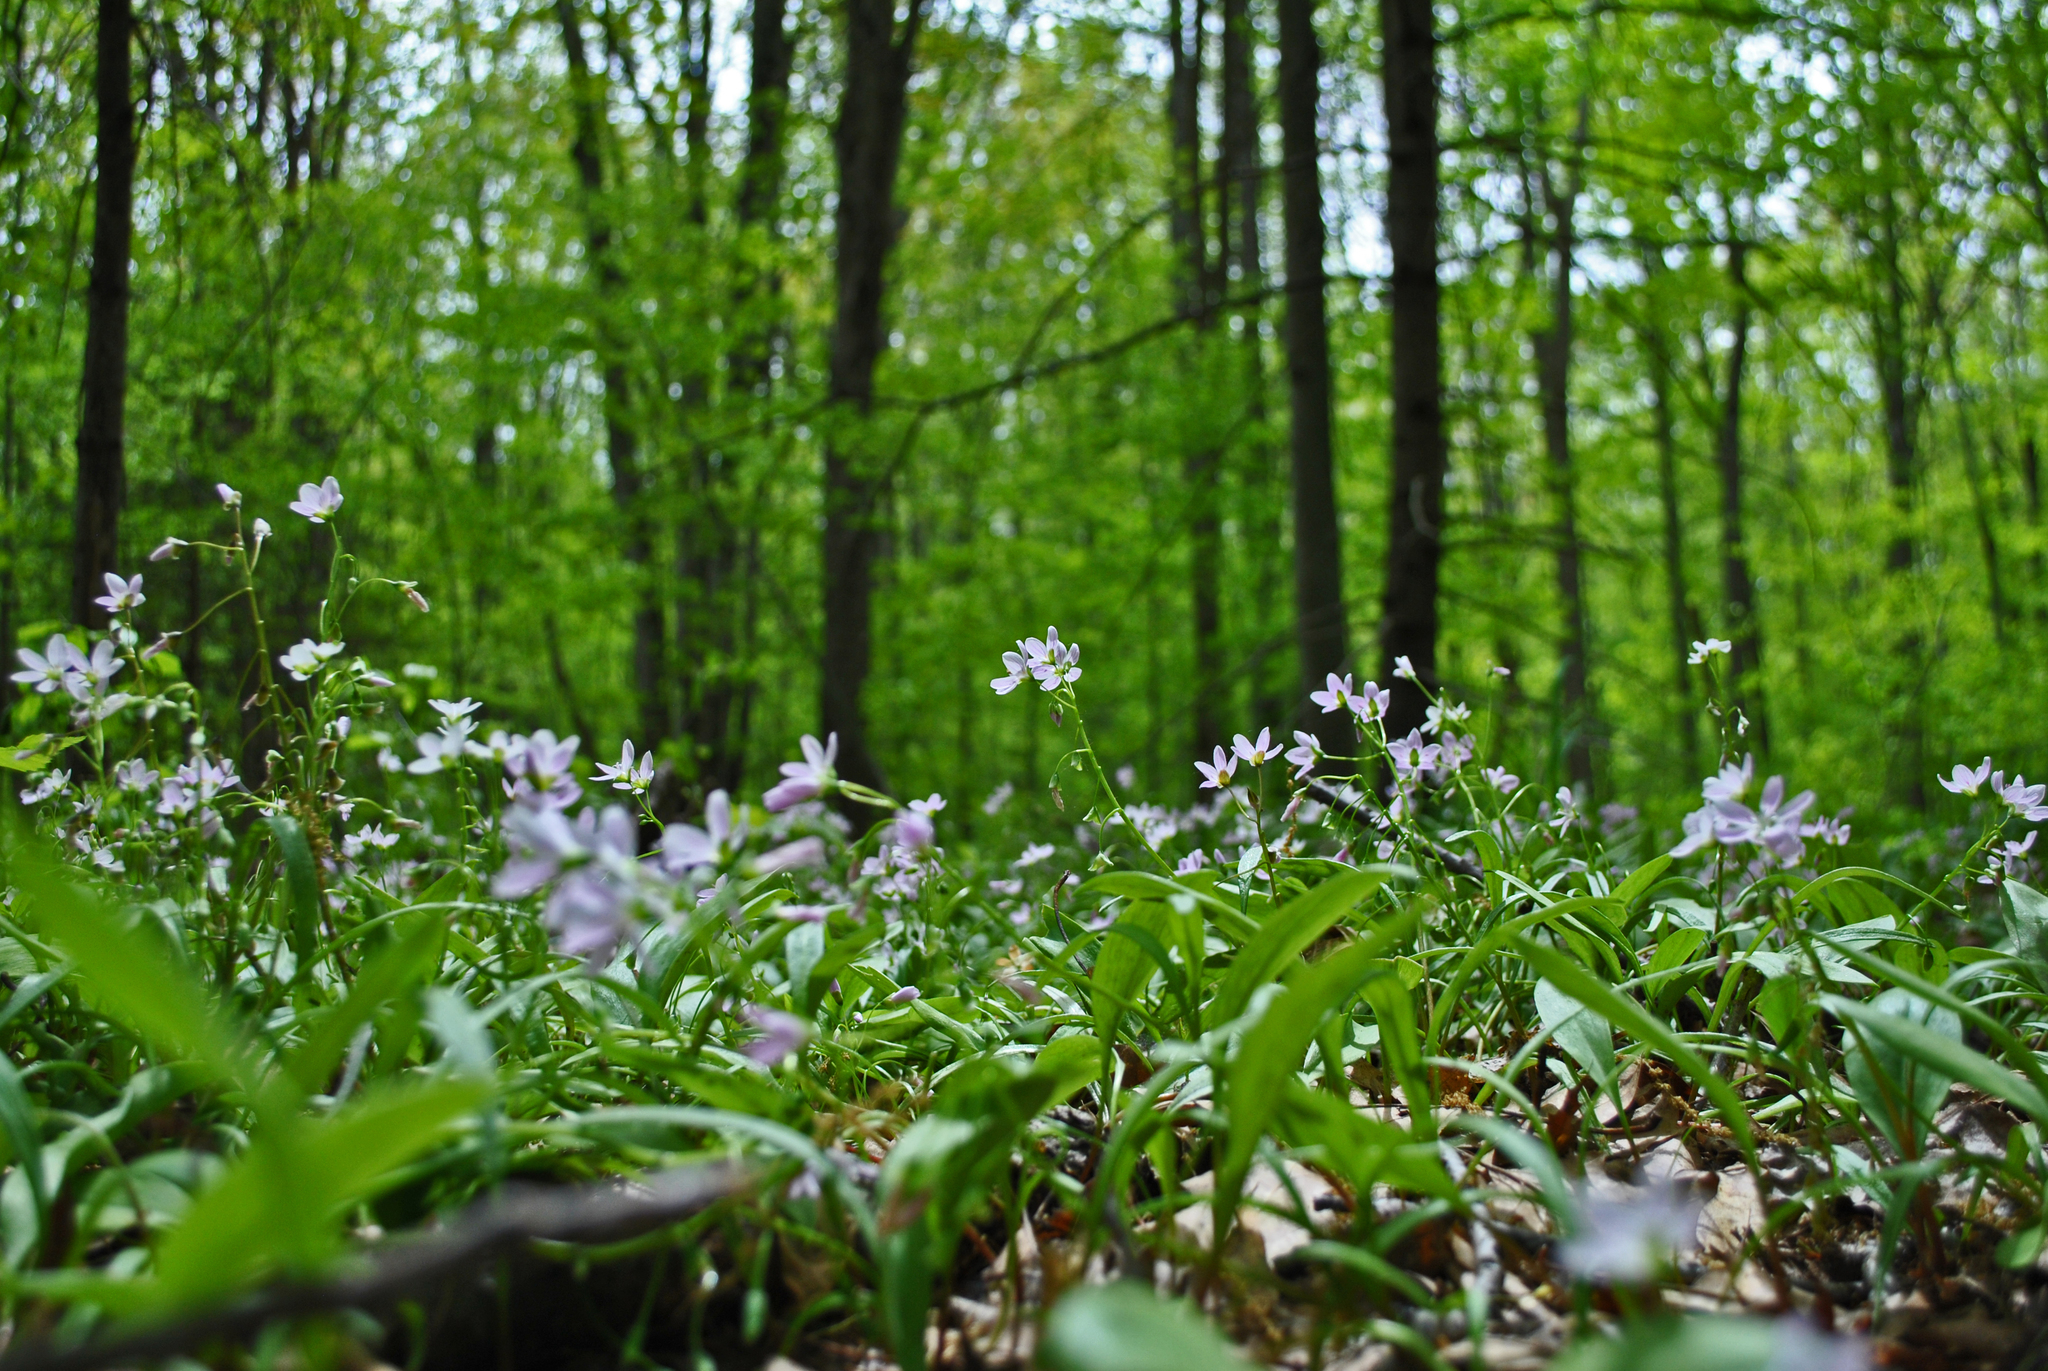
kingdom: Plantae
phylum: Tracheophyta
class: Magnoliopsida
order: Caryophyllales
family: Montiaceae
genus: Claytonia
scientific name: Claytonia virginica
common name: Virginia springbeauty
